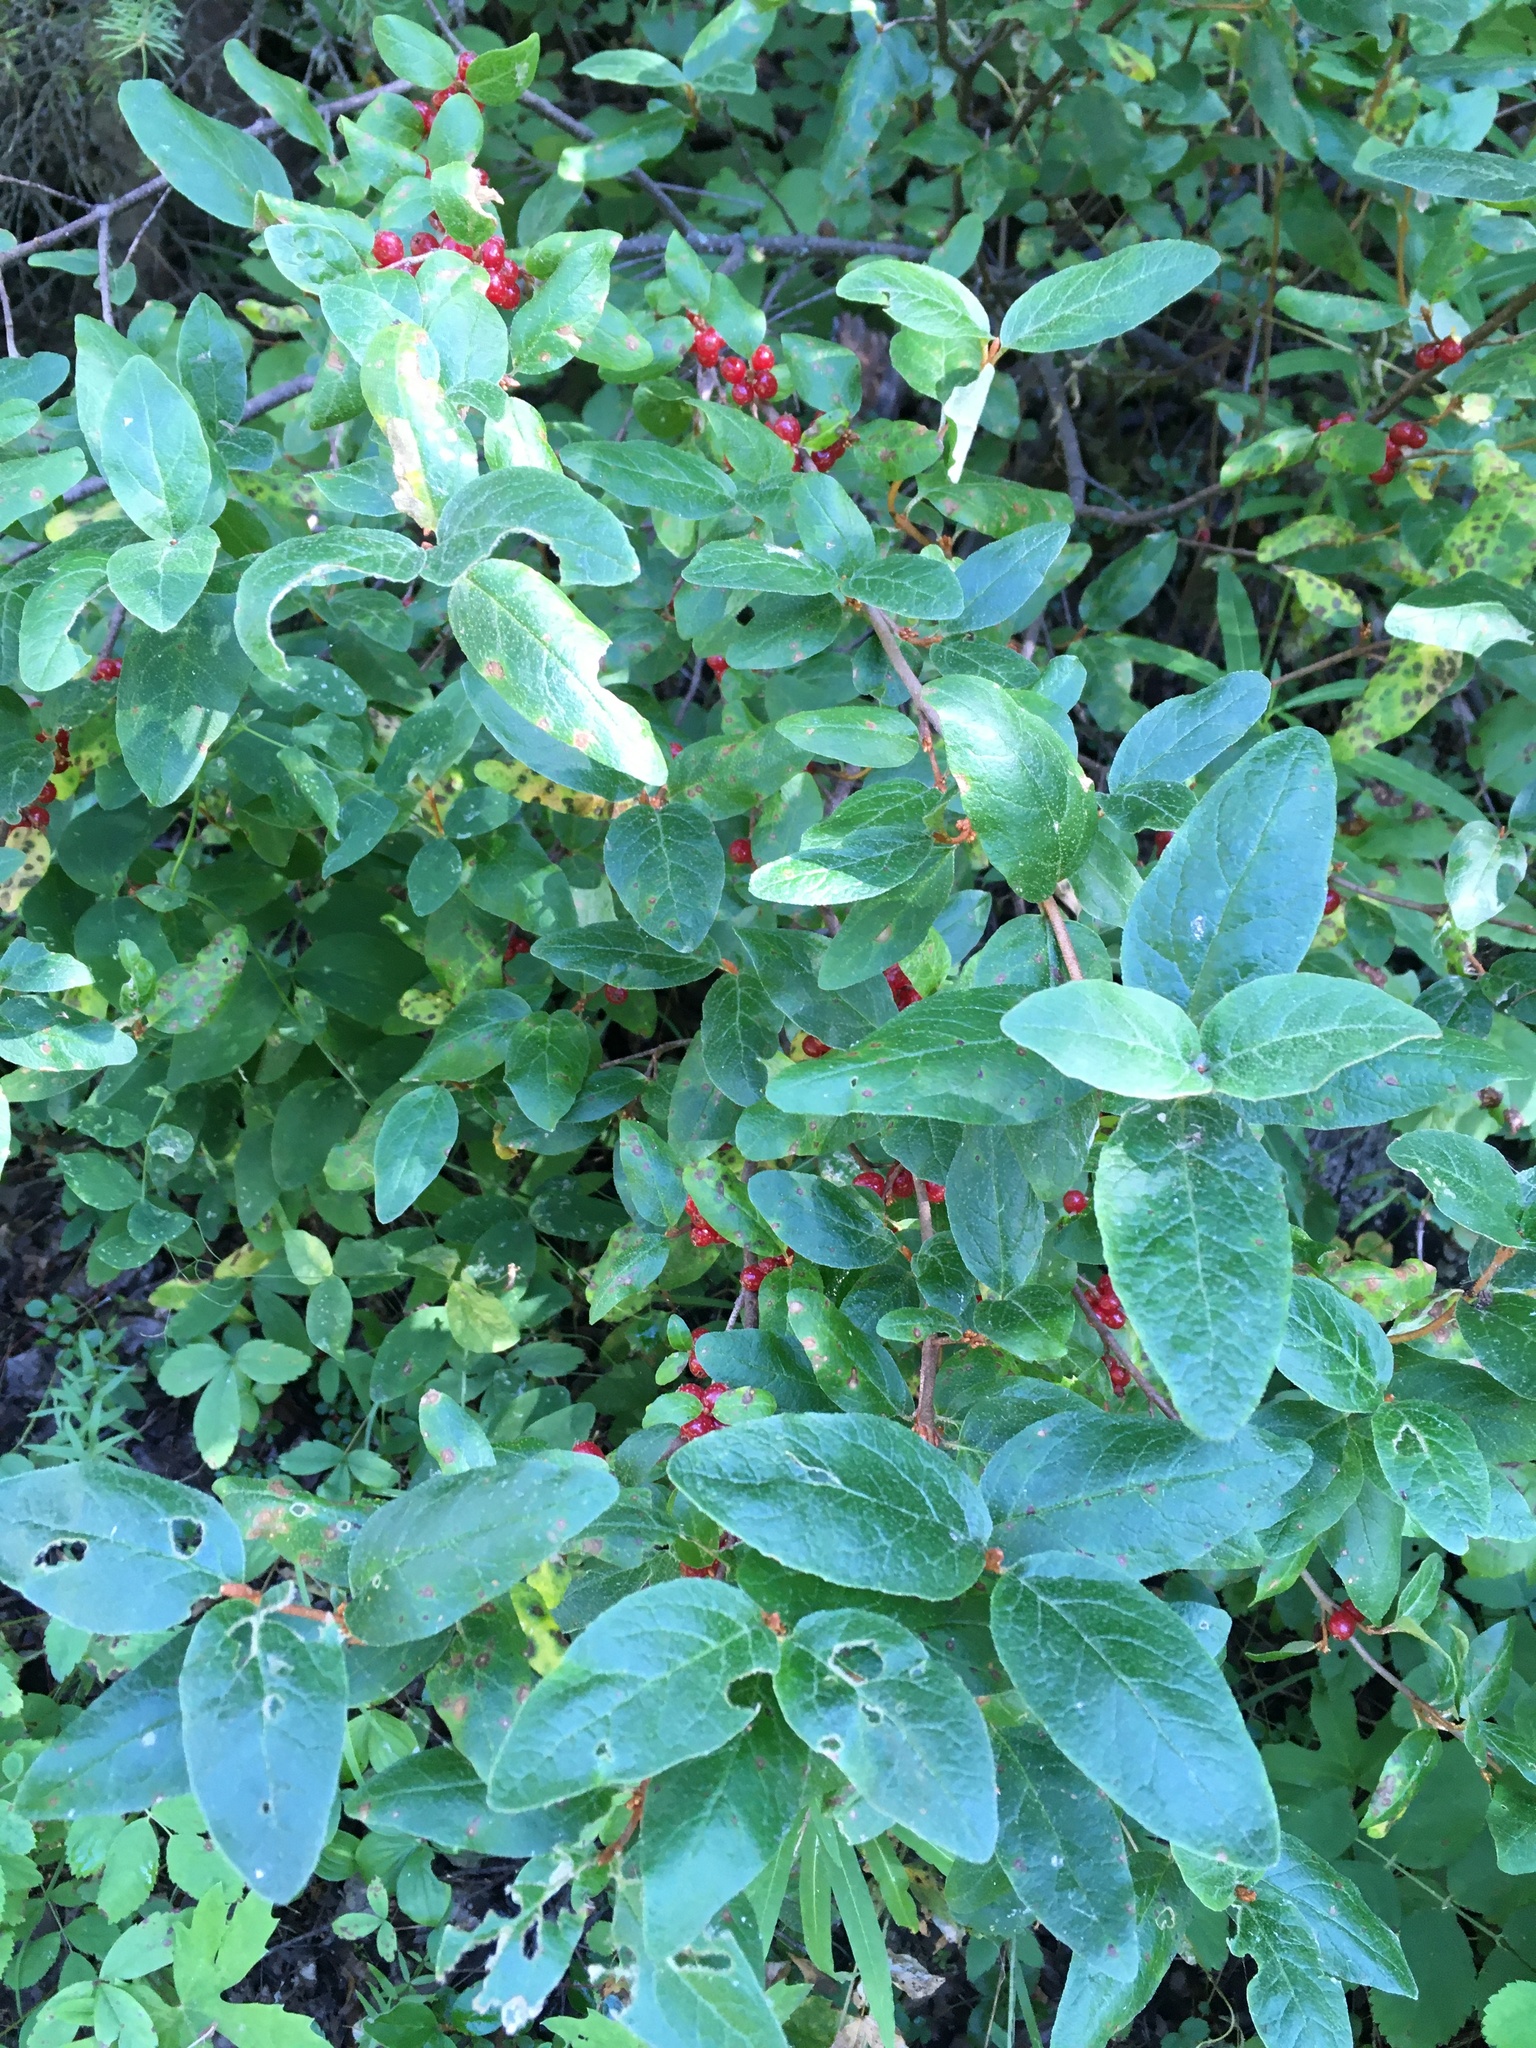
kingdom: Plantae
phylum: Tracheophyta
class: Magnoliopsida
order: Rosales
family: Elaeagnaceae
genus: Shepherdia
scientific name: Shepherdia canadensis
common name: Soapberry
